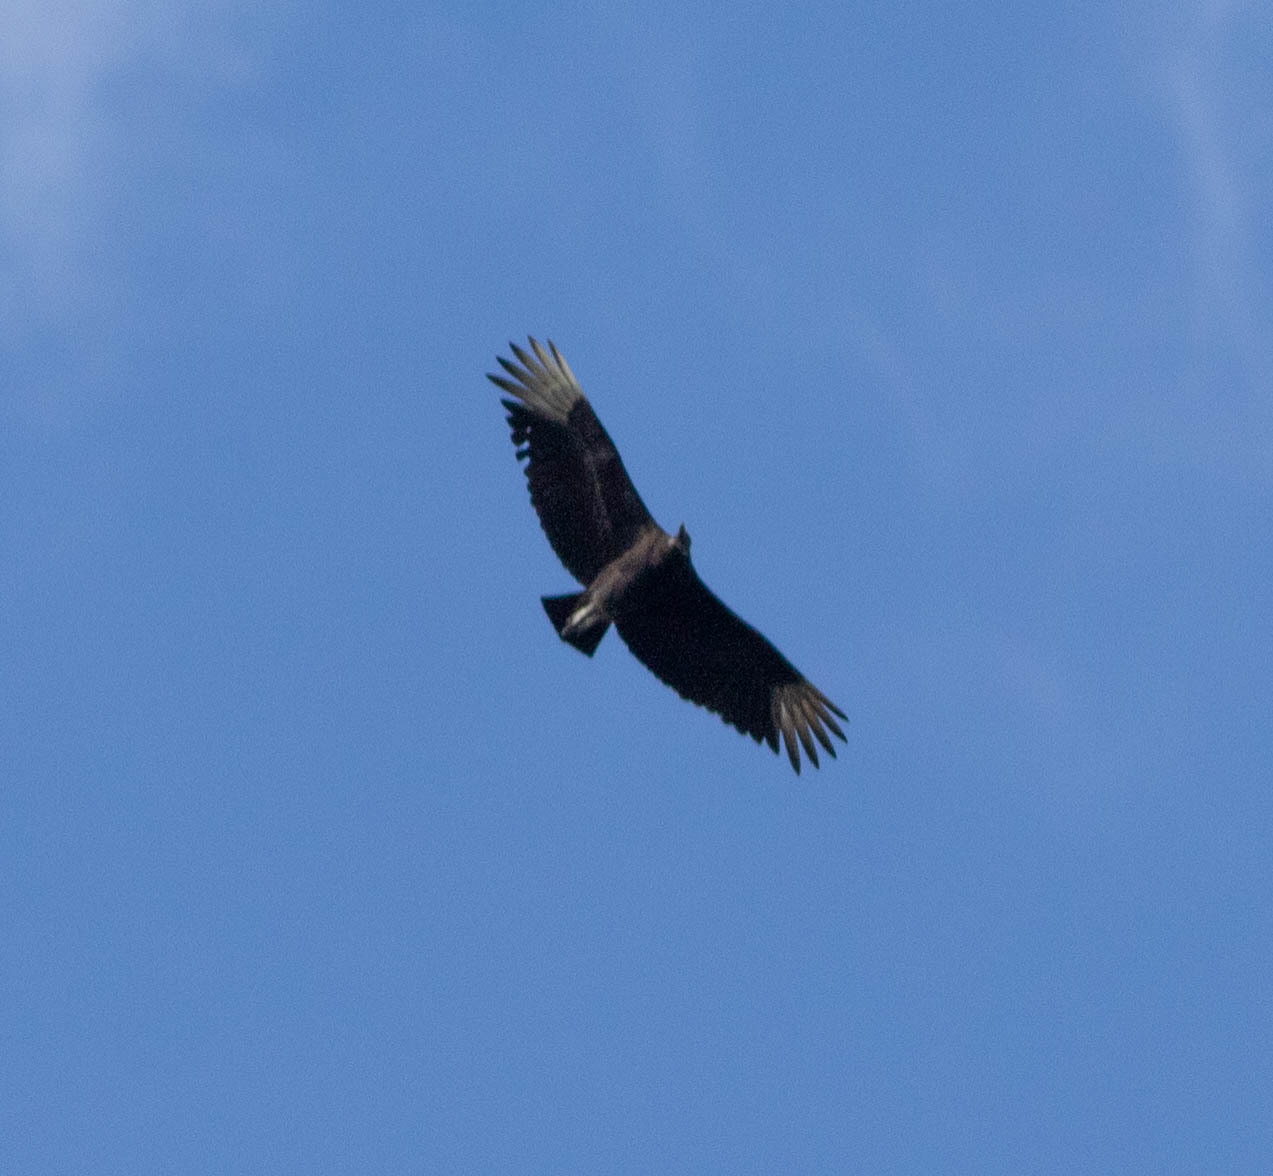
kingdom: Animalia
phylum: Chordata
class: Aves
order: Accipitriformes
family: Cathartidae
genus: Coragyps
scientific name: Coragyps atratus
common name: Black vulture
